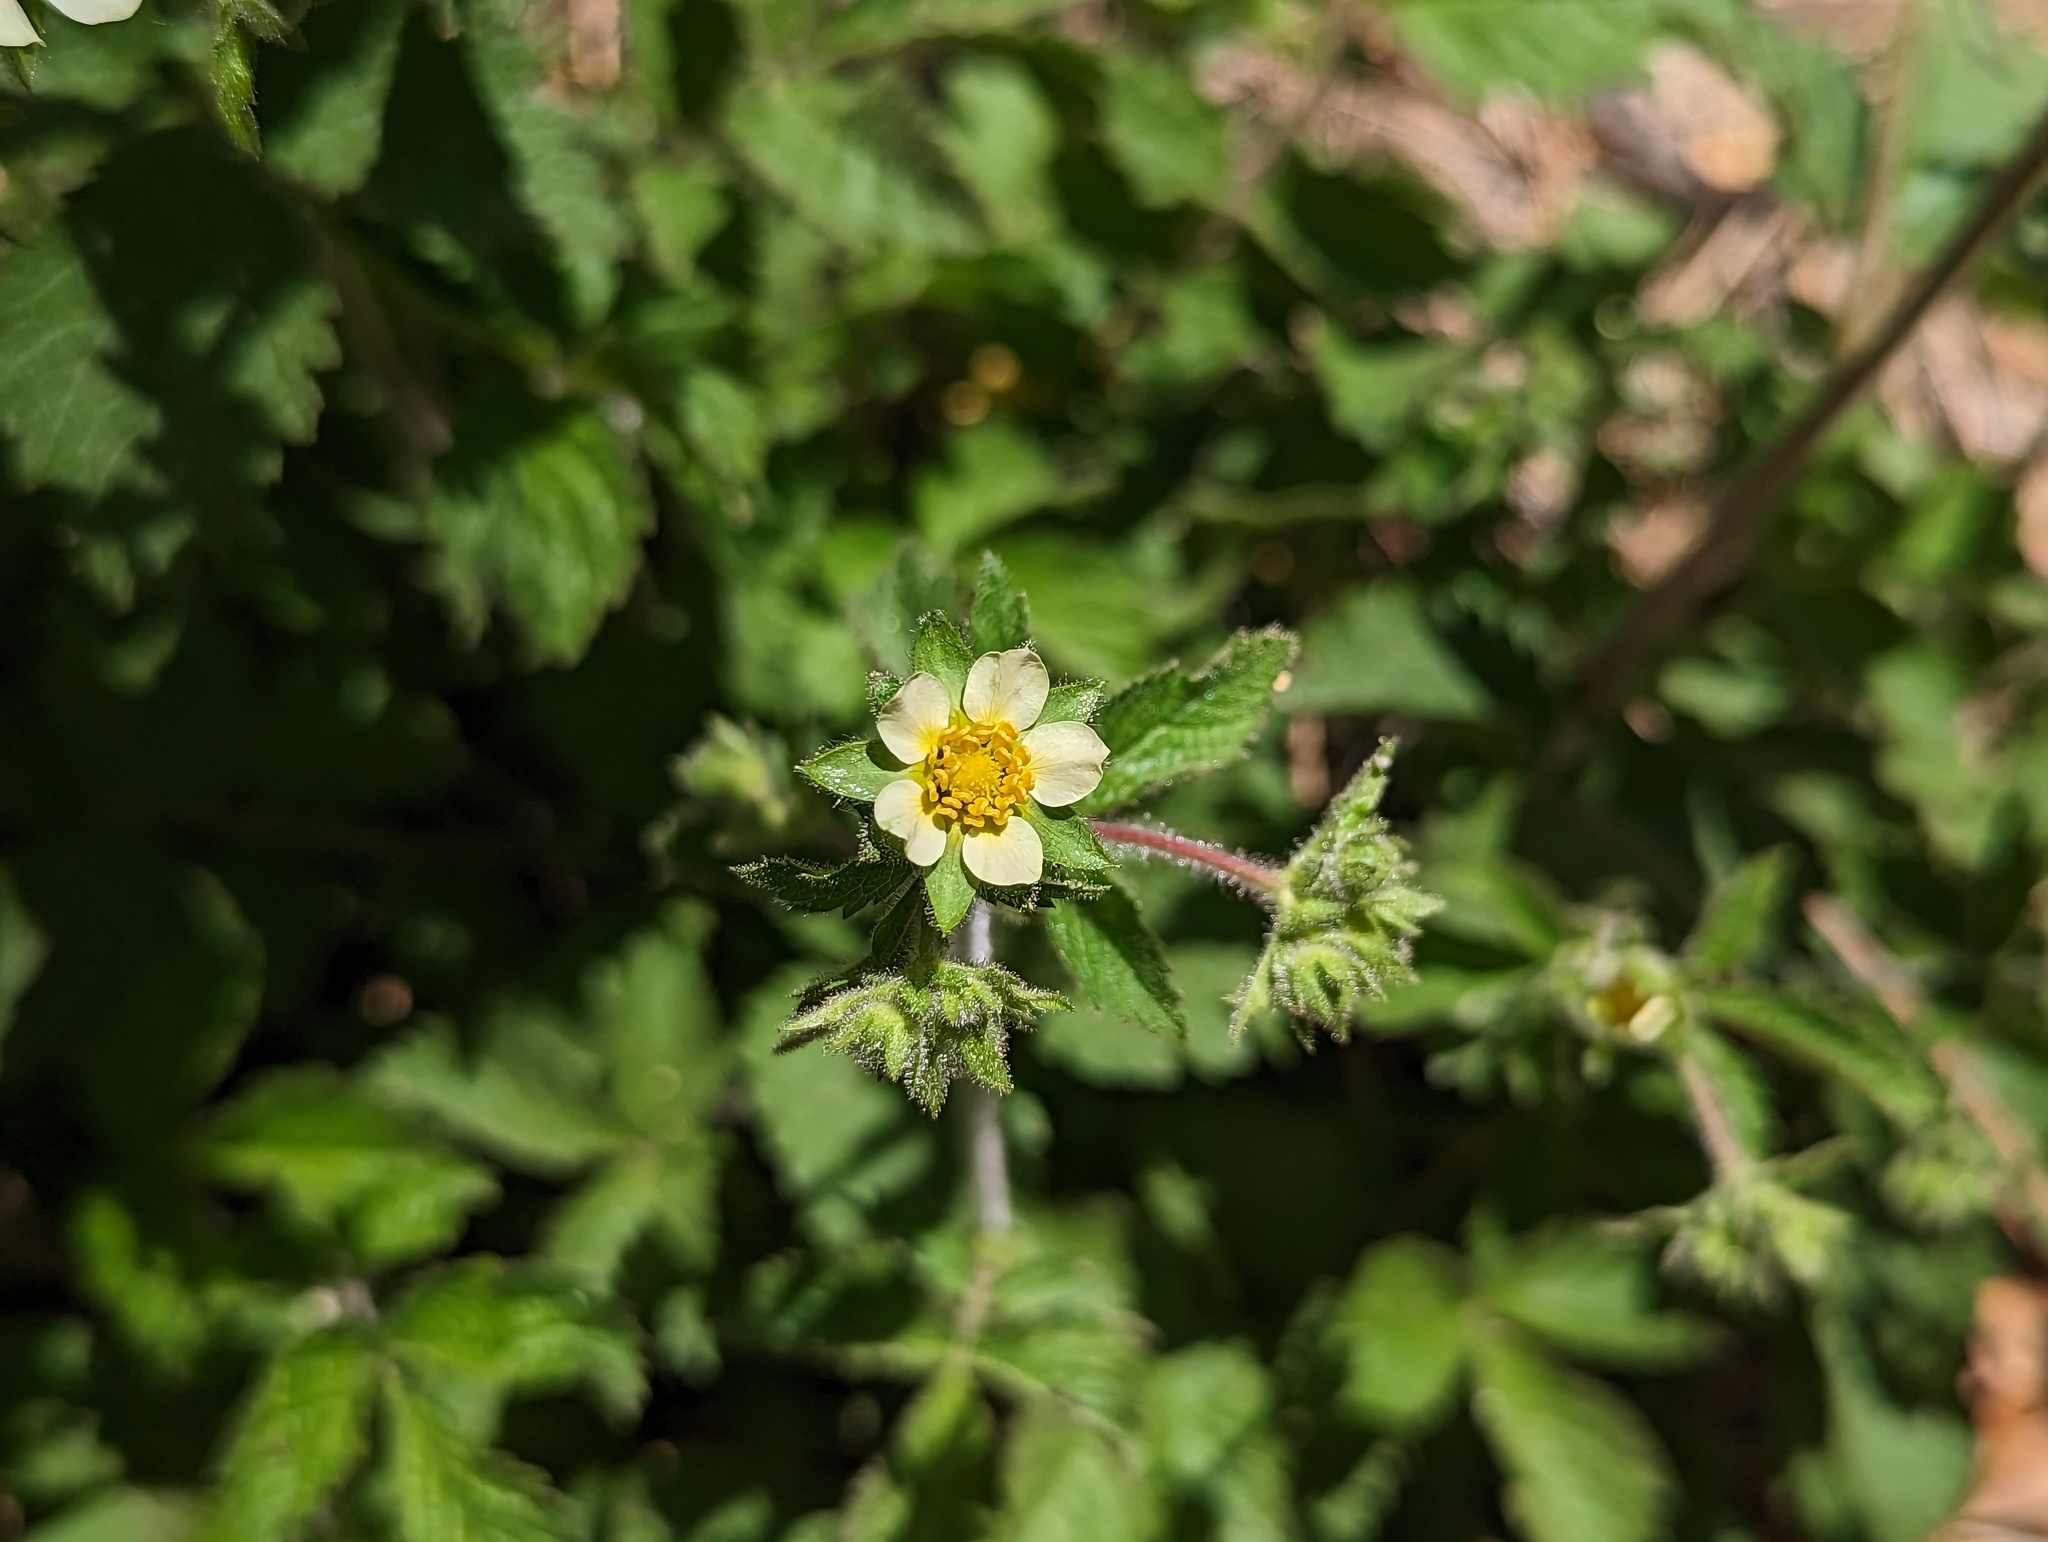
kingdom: Plantae
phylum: Tracheophyta
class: Magnoliopsida
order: Rosales
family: Rosaceae
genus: Drymocallis
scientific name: Drymocallis glandulosa
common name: Sticky cinquefoil
